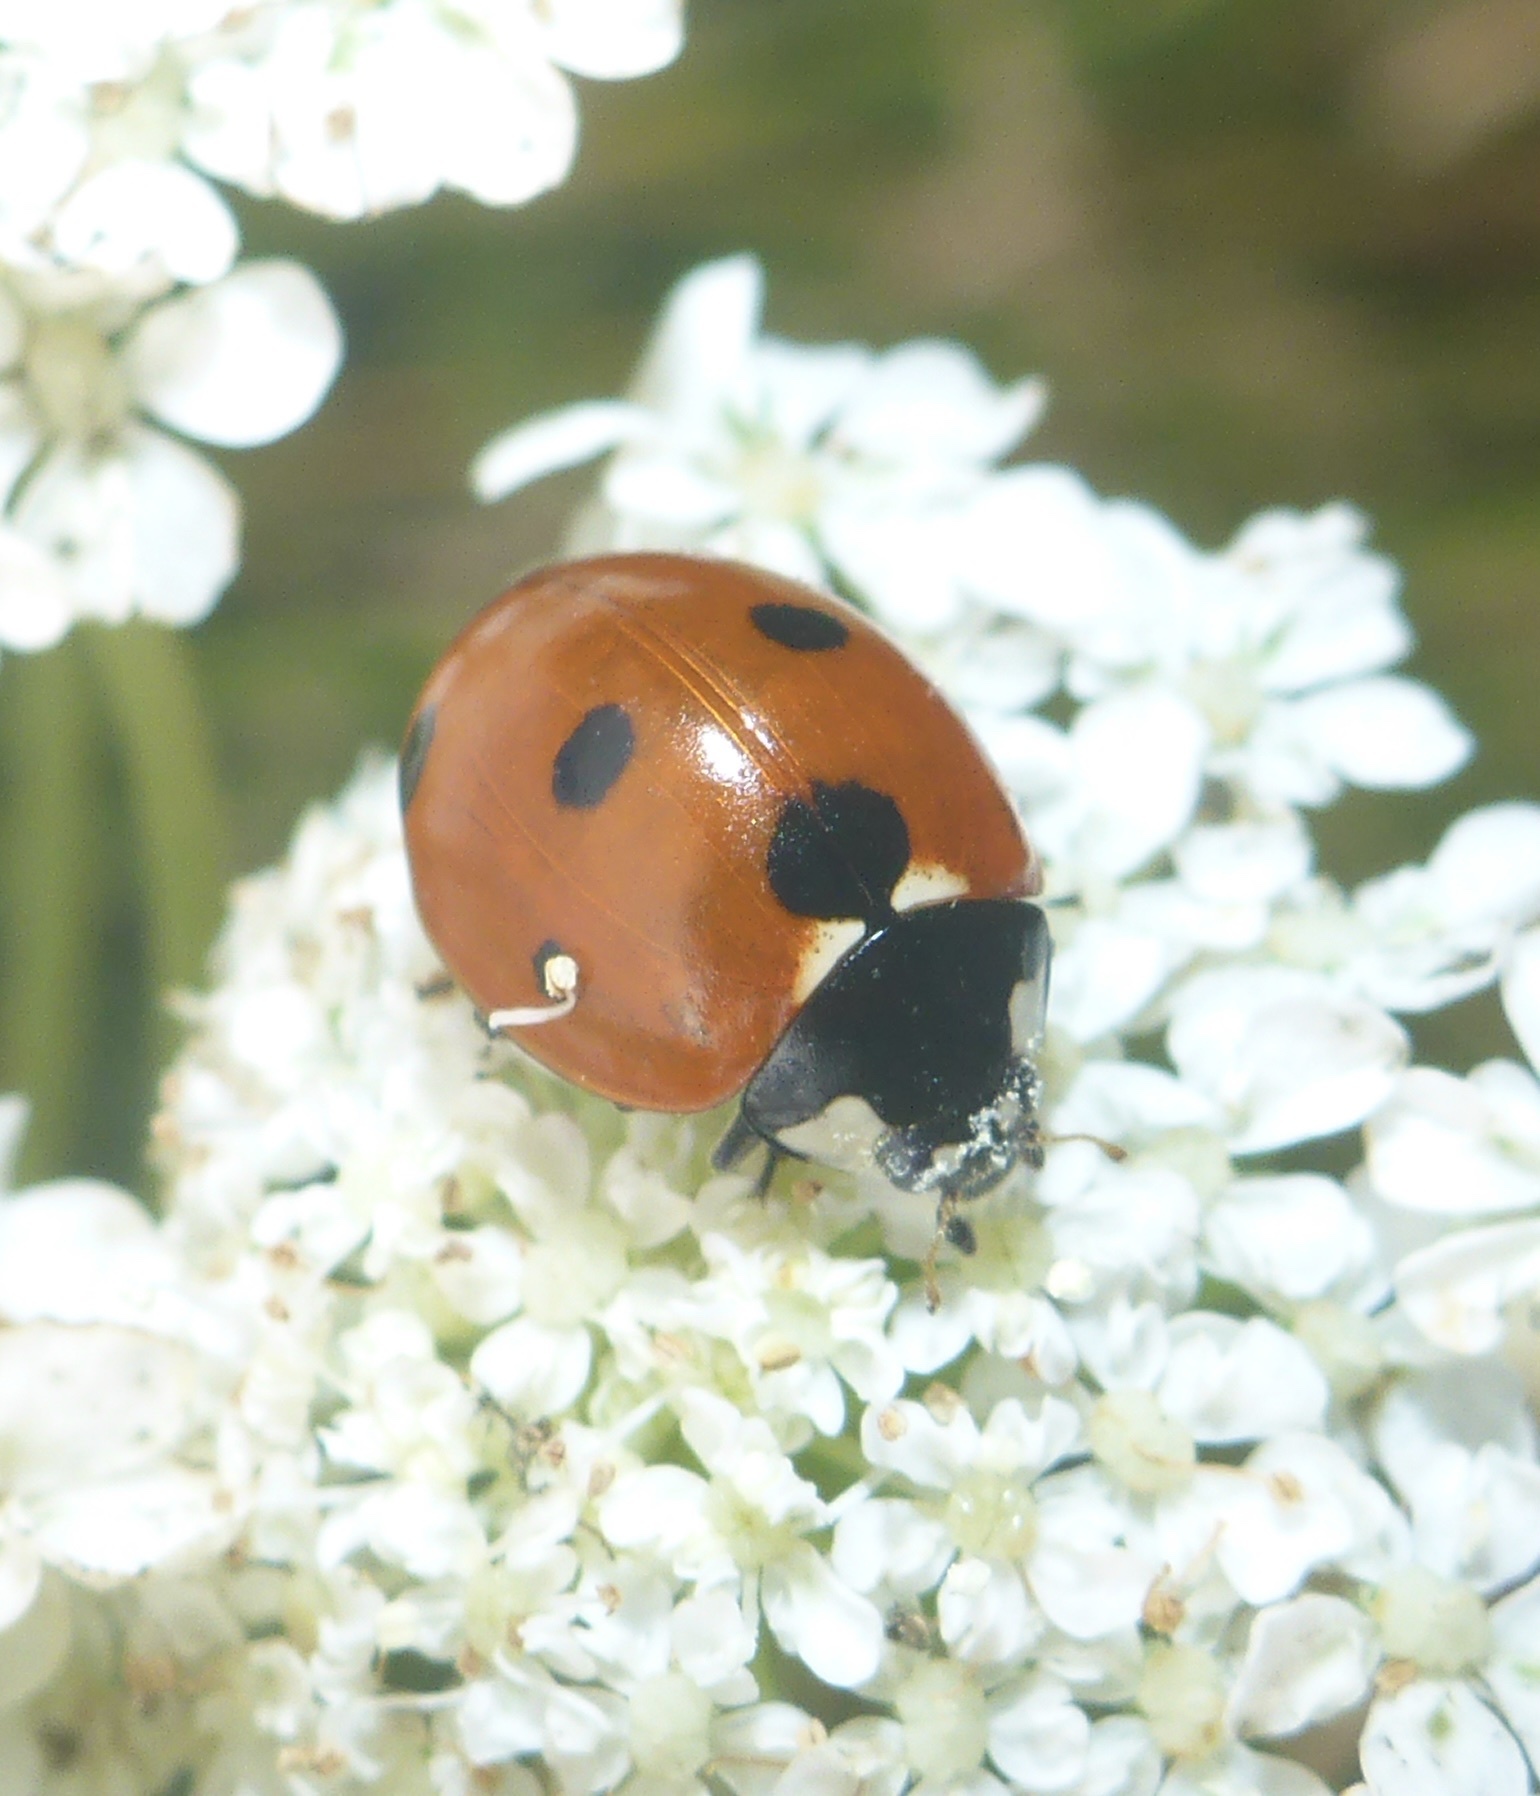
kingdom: Animalia
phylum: Arthropoda
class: Insecta
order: Coleoptera
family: Coccinellidae
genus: Coccinella
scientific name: Coccinella septempunctata
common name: Sevenspotted lady beetle
